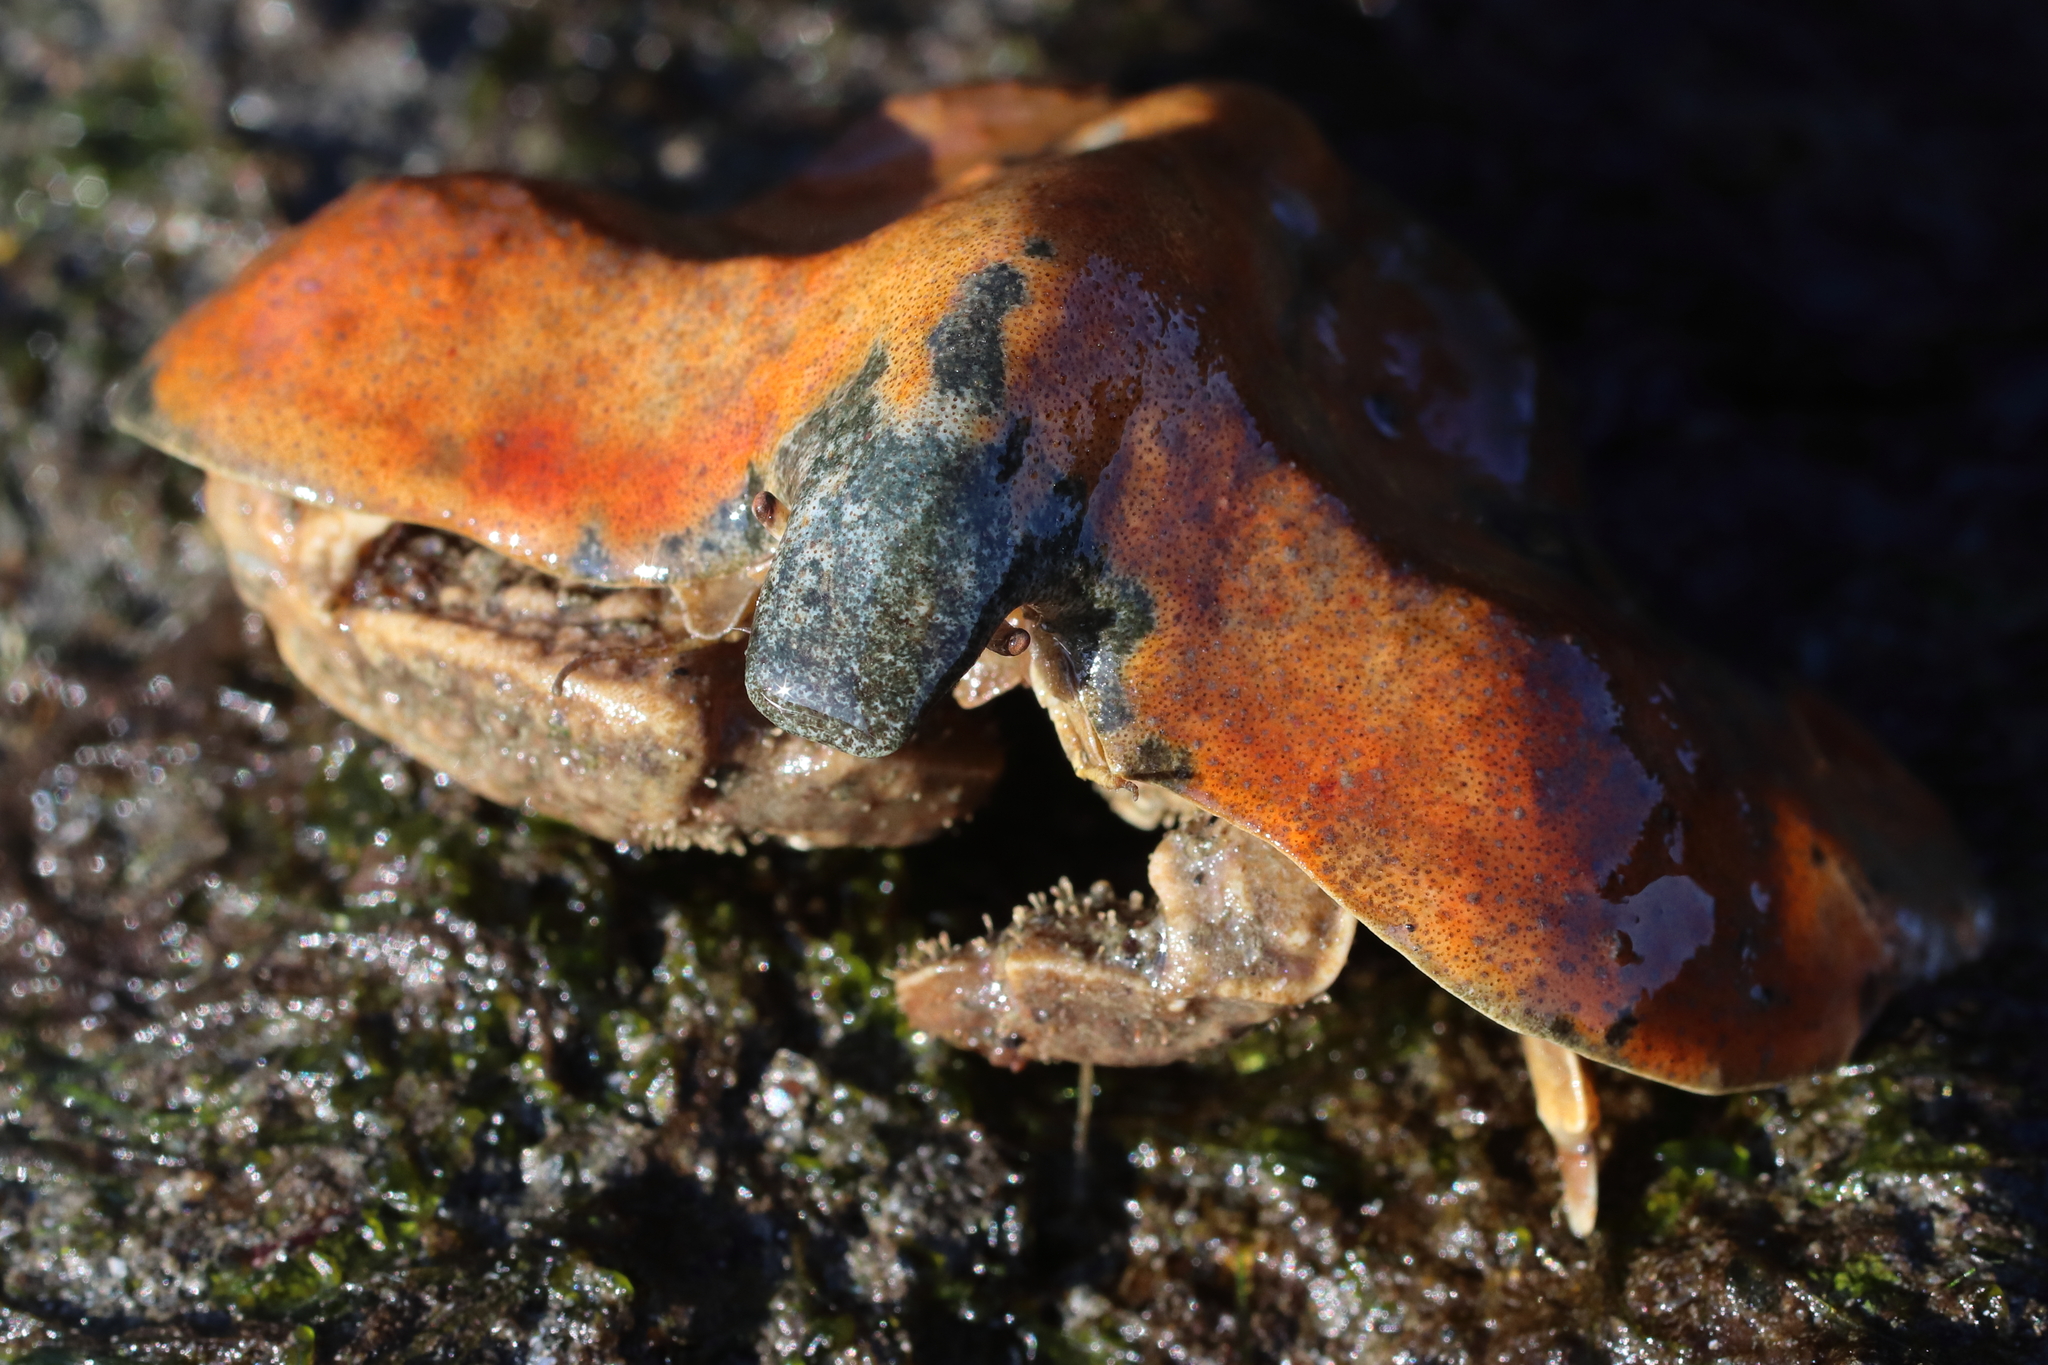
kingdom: Animalia
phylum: Arthropoda
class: Malacostraca
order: Decapoda
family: Lithodidae
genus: Cryptolithodes
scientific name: Cryptolithodes typicus
